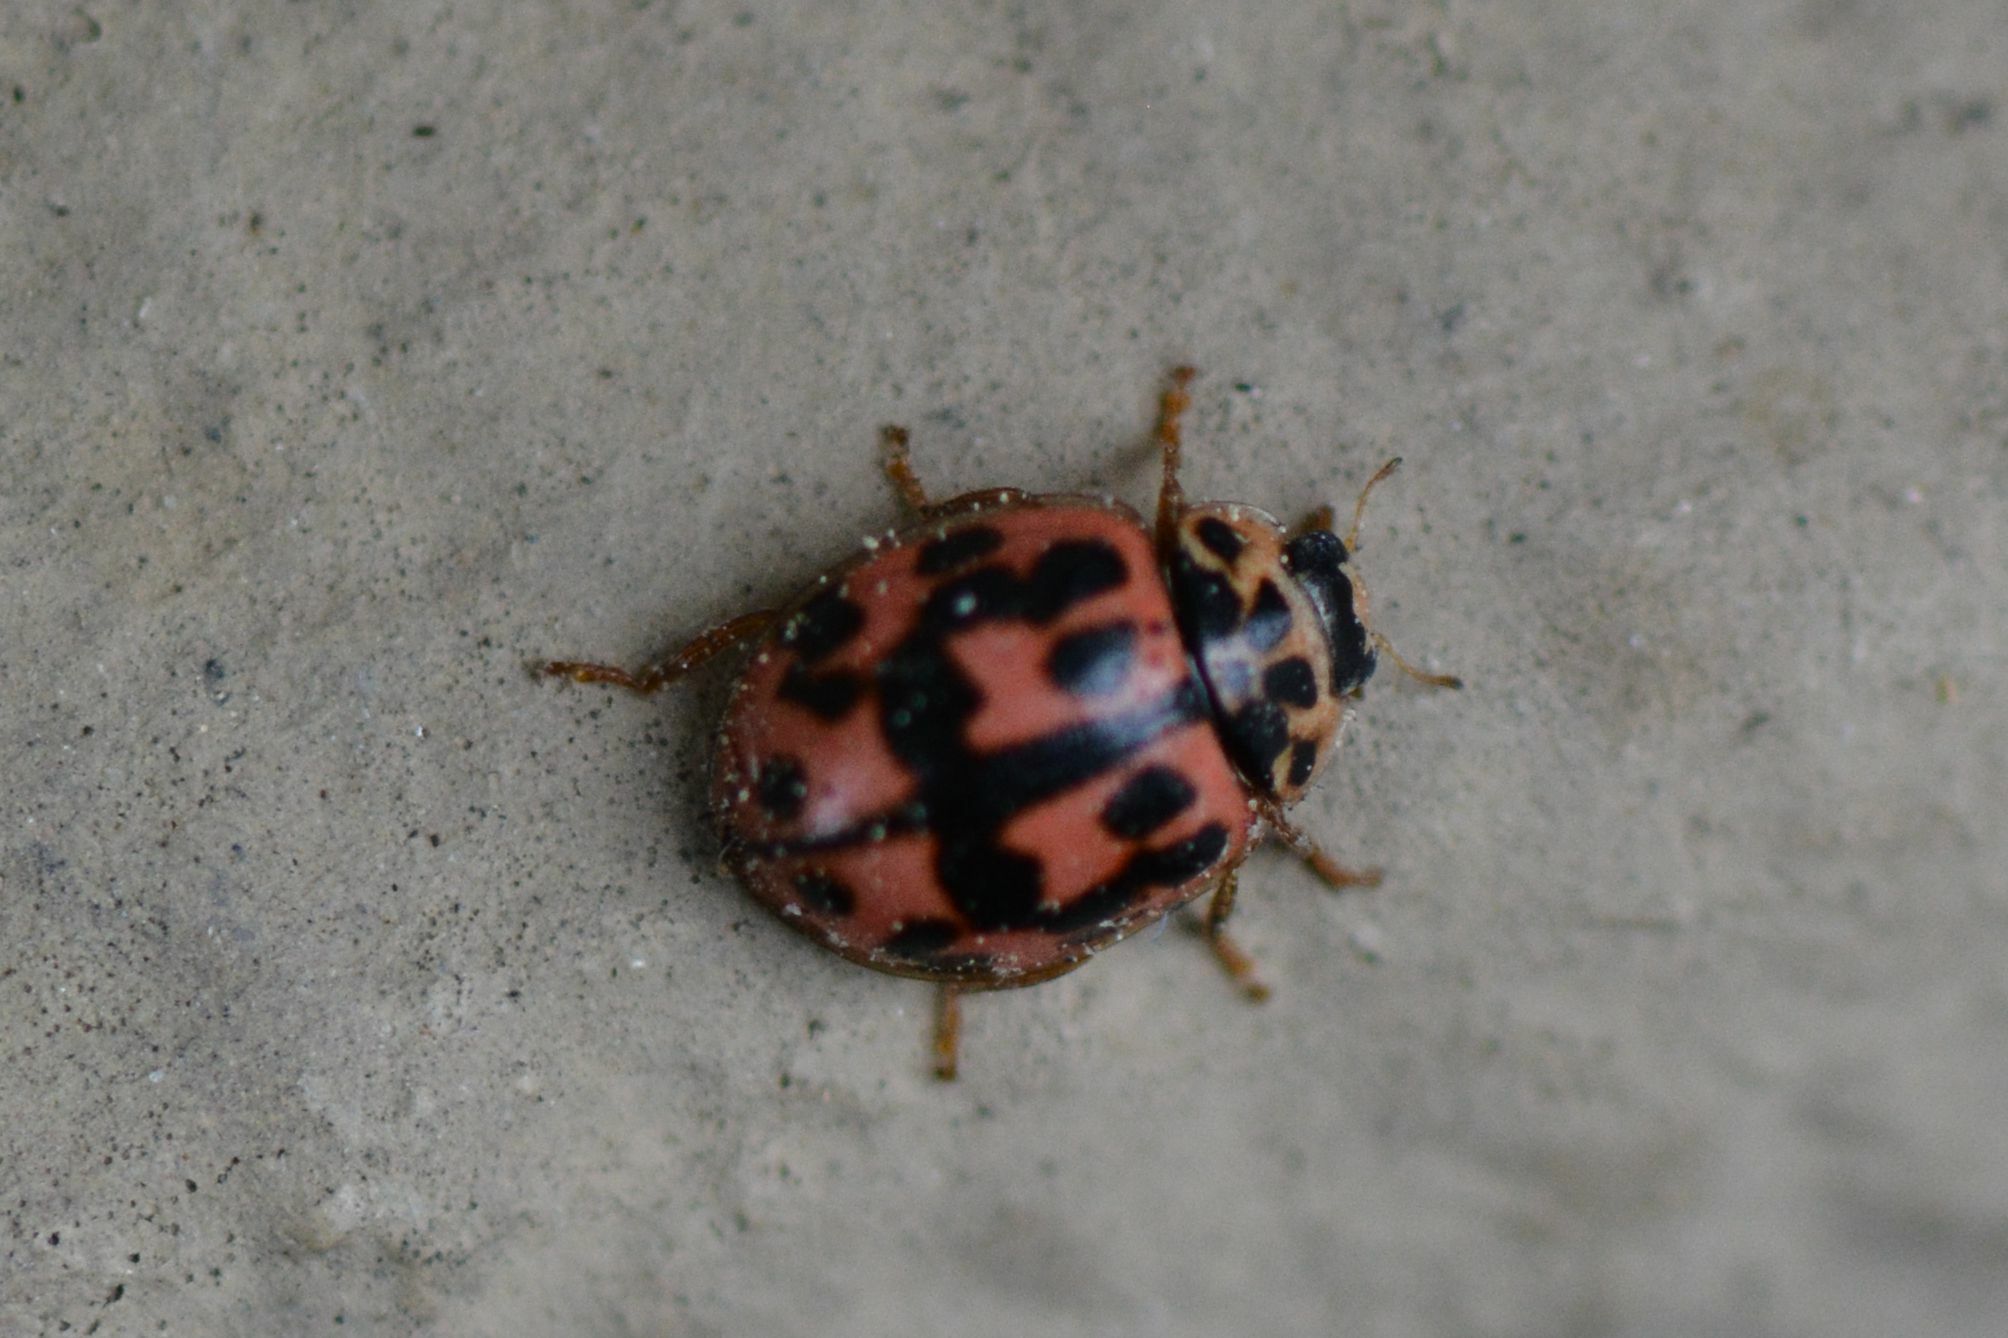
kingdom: Animalia
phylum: Arthropoda
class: Insecta
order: Coleoptera
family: Coccinellidae
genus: Oenopia
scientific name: Oenopia conglobata
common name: Ladybird beetle
